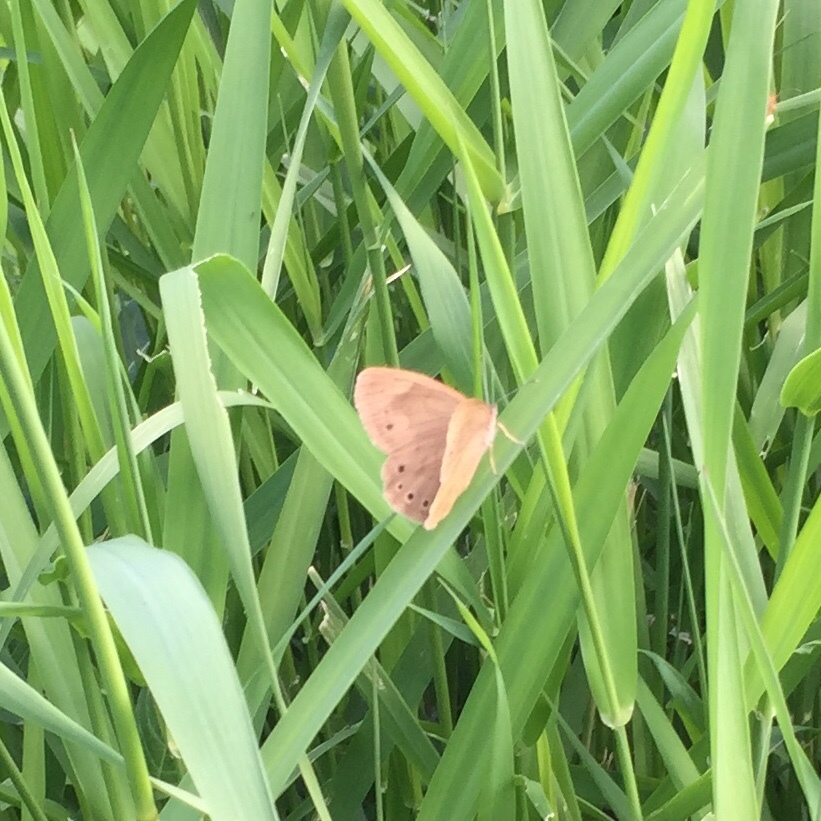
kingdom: Animalia
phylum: Arthropoda
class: Insecta
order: Lepidoptera
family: Nymphalidae
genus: Lethe
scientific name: Lethe eurydice
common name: Eyed brown
